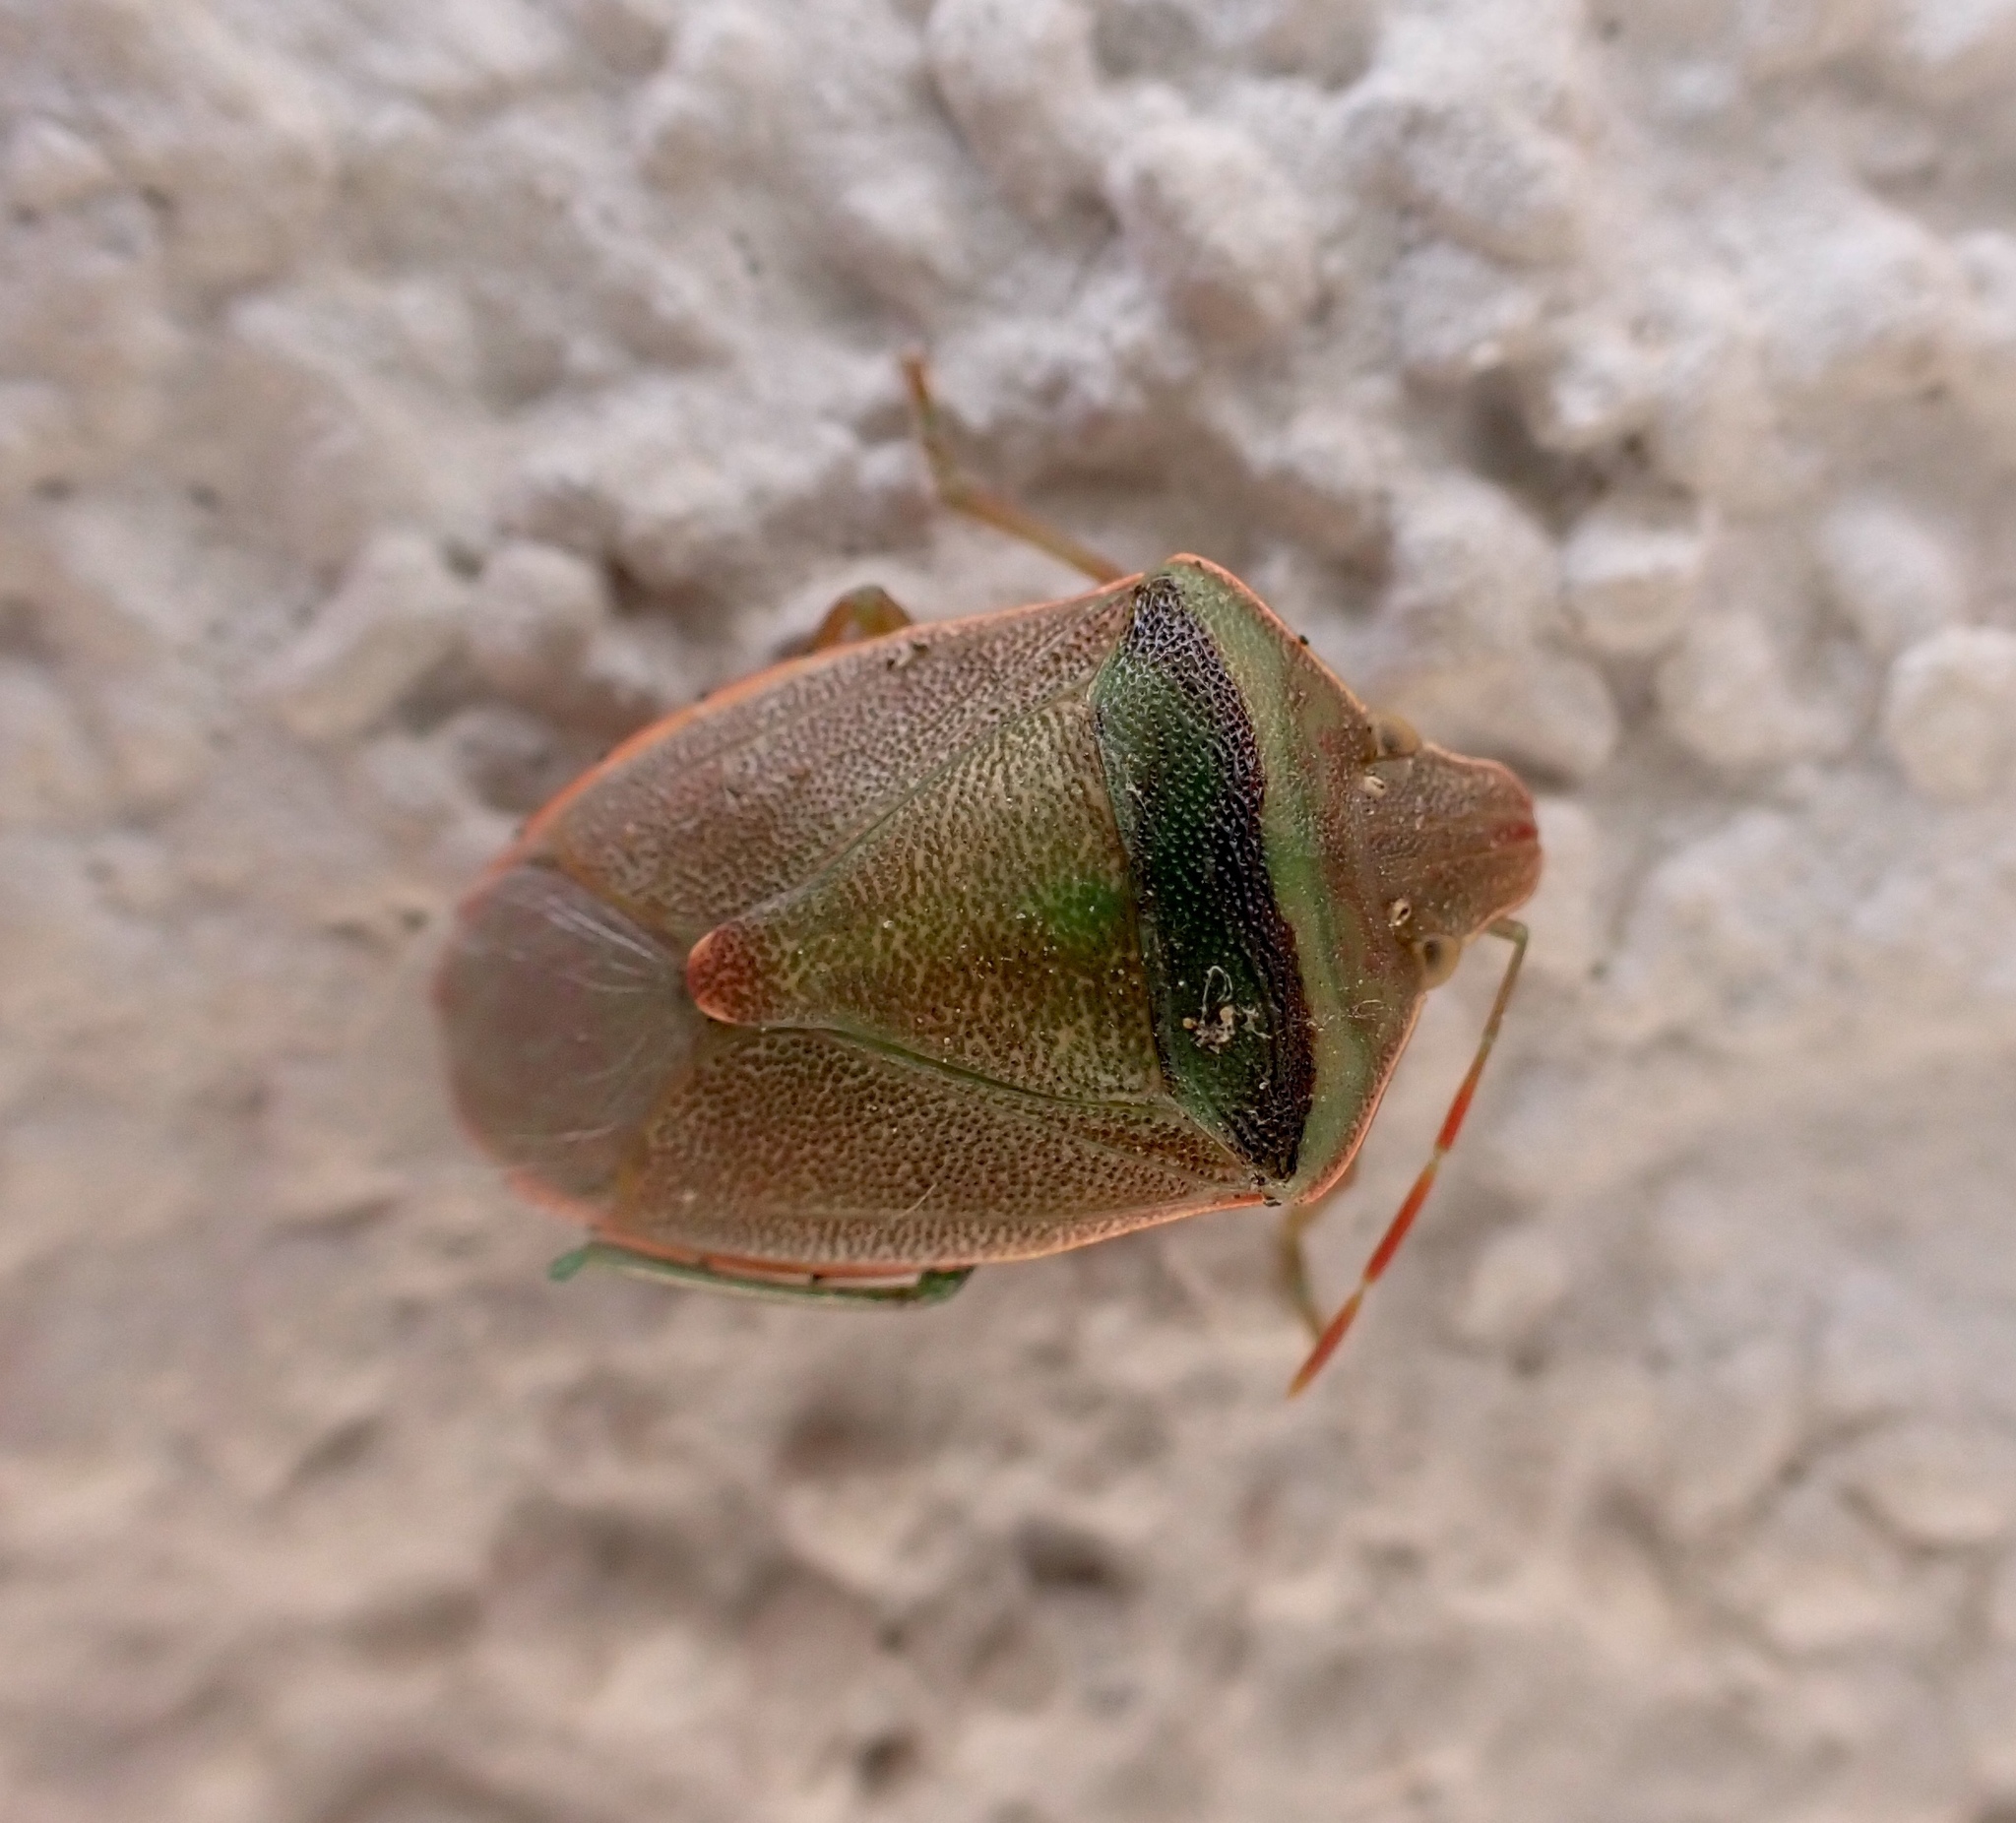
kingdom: Animalia
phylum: Arthropoda
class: Insecta
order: Hemiptera
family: Pentatomidae
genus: Acrosternum
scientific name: Acrosternum heegeri
